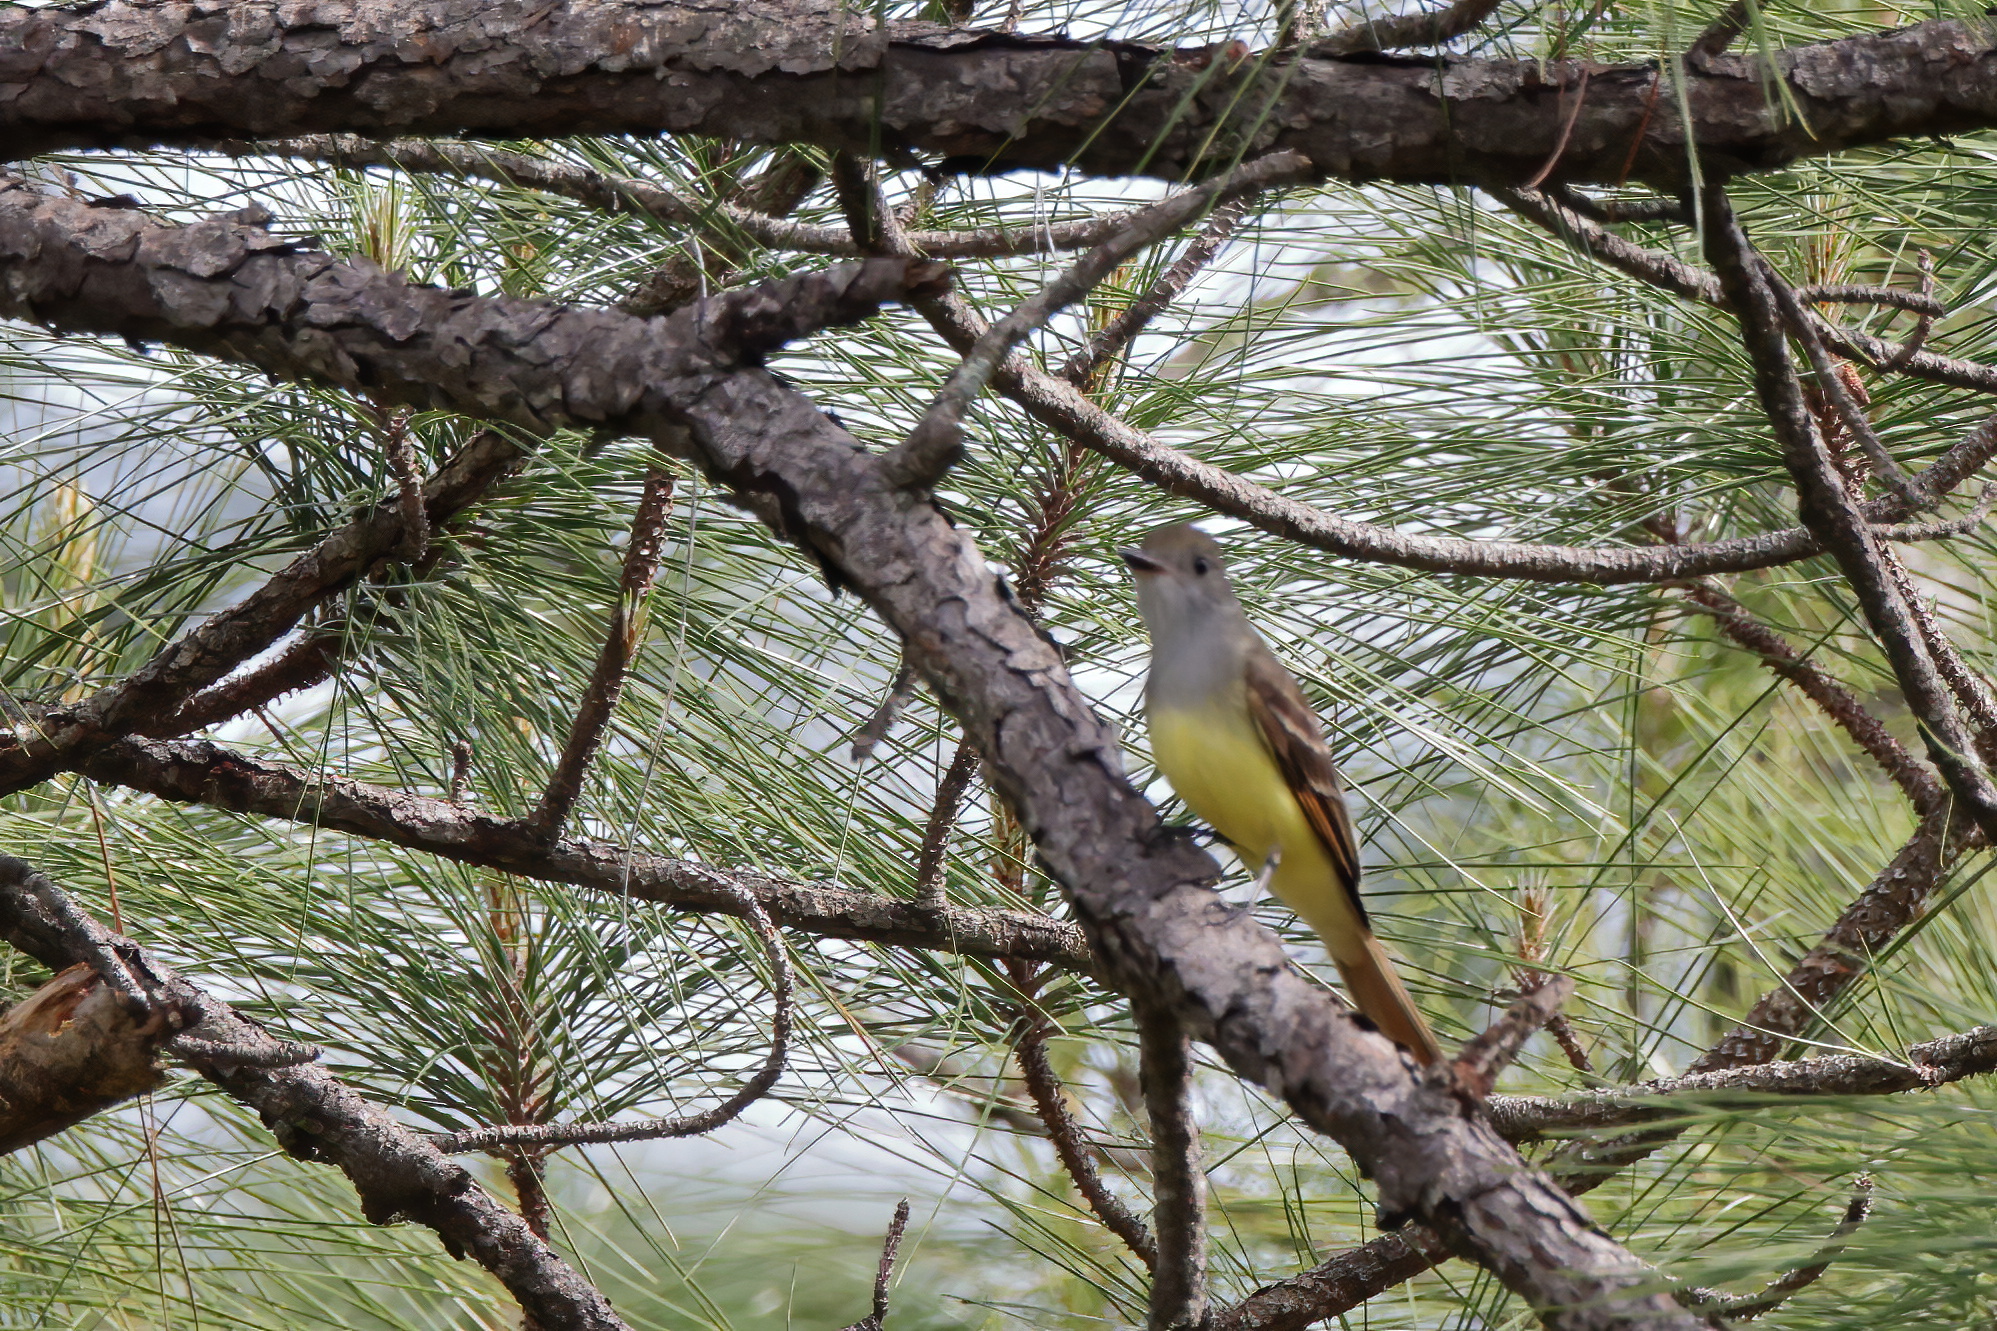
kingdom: Animalia
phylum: Chordata
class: Aves
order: Passeriformes
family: Tyrannidae
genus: Myiarchus
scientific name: Myiarchus crinitus
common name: Great crested flycatcher
